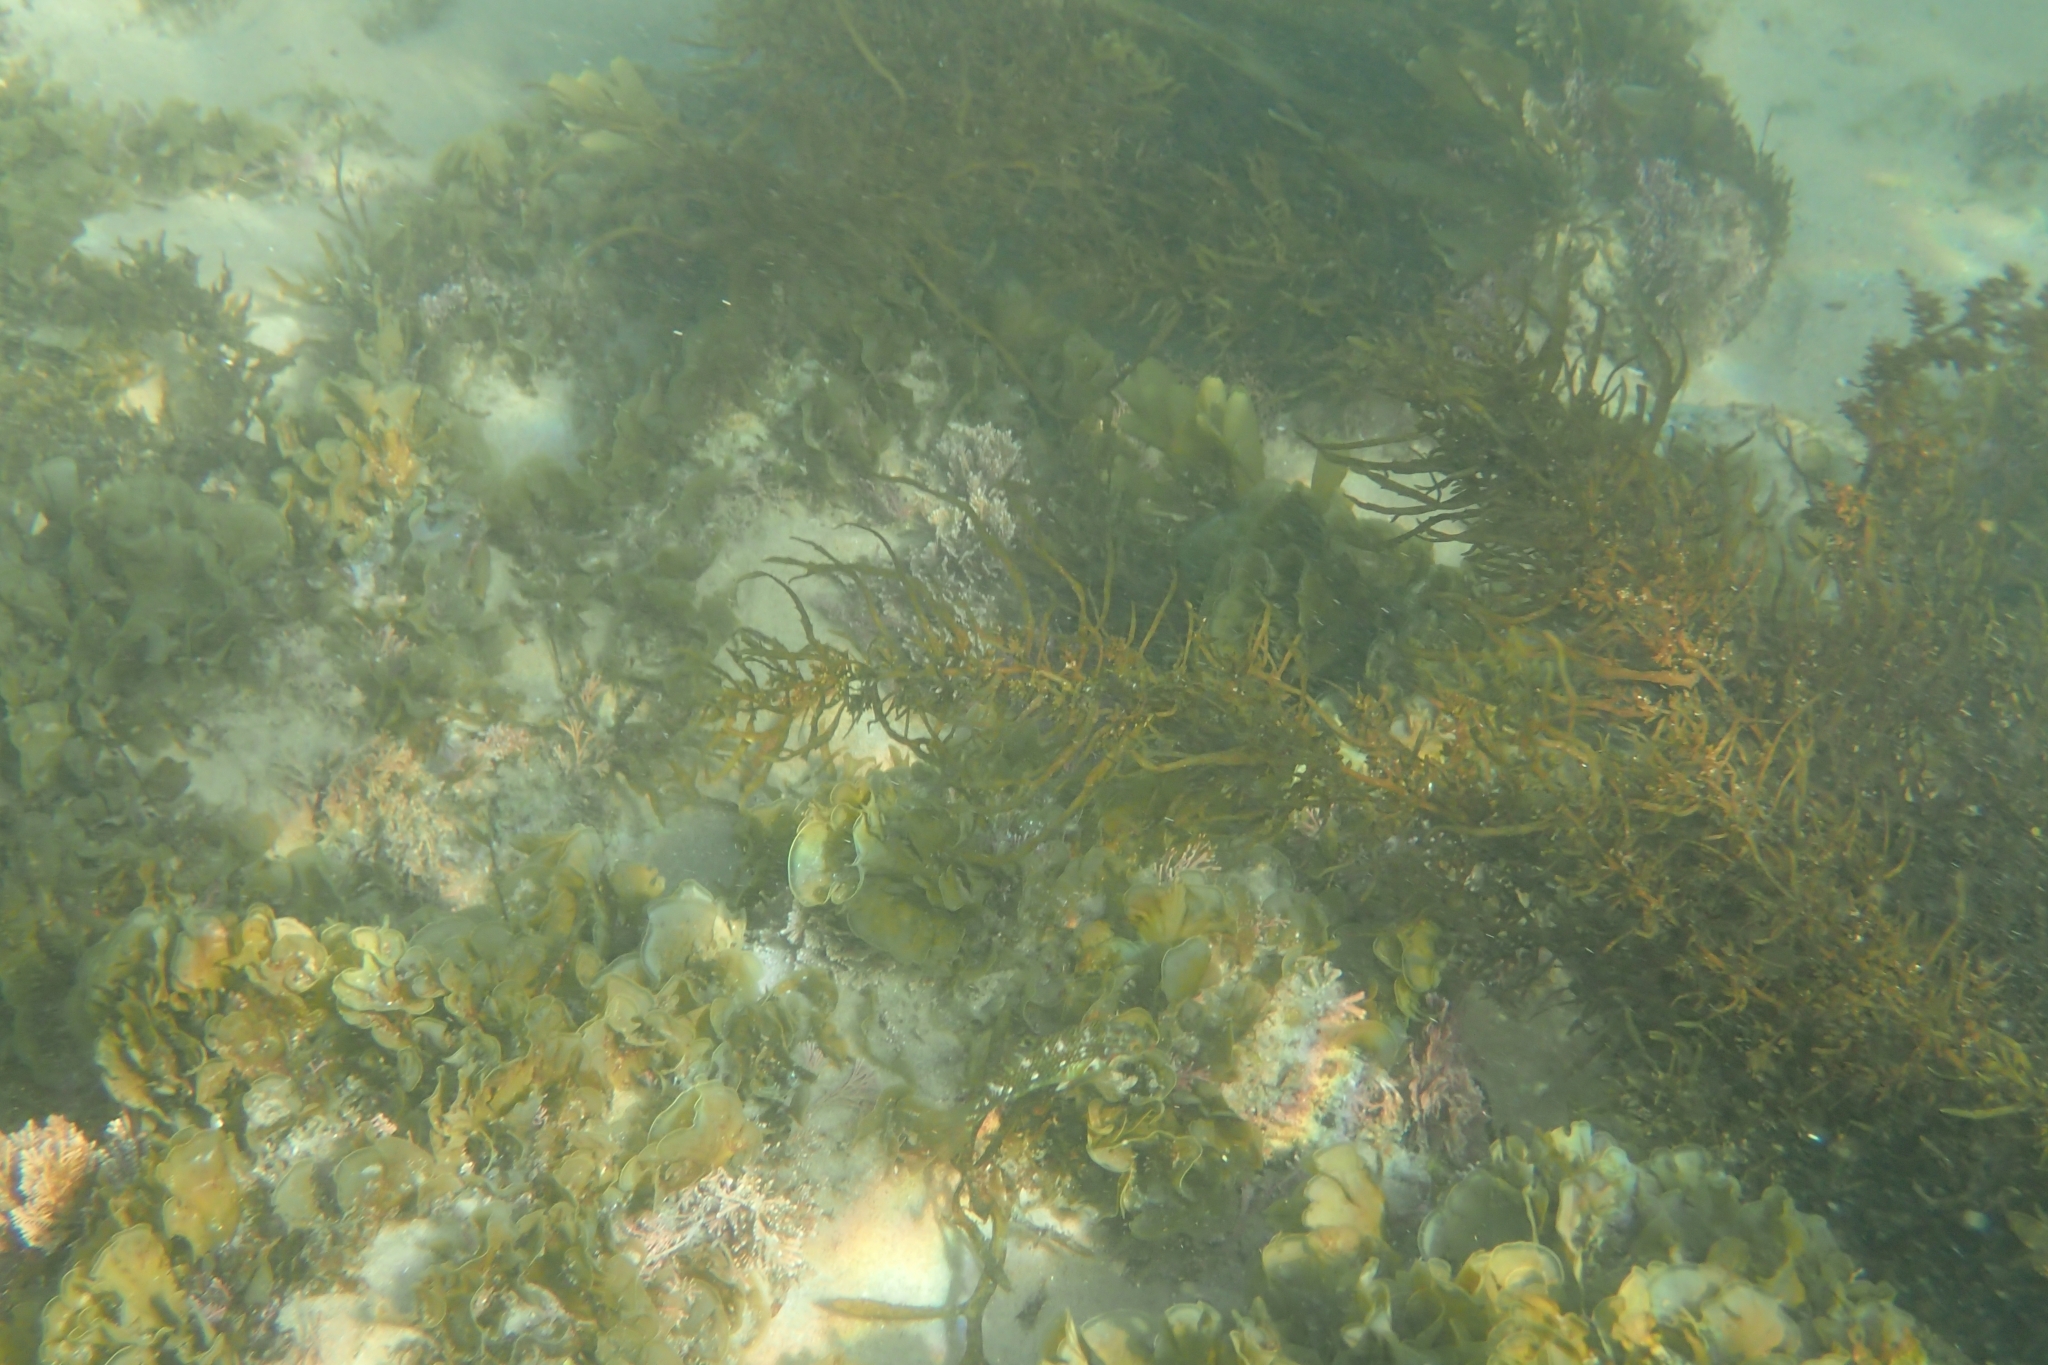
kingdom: Animalia
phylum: Chordata
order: Perciformes
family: Labridae
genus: Halichoeres
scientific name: Halichoeres nebulosus
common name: Clouded wrasse
